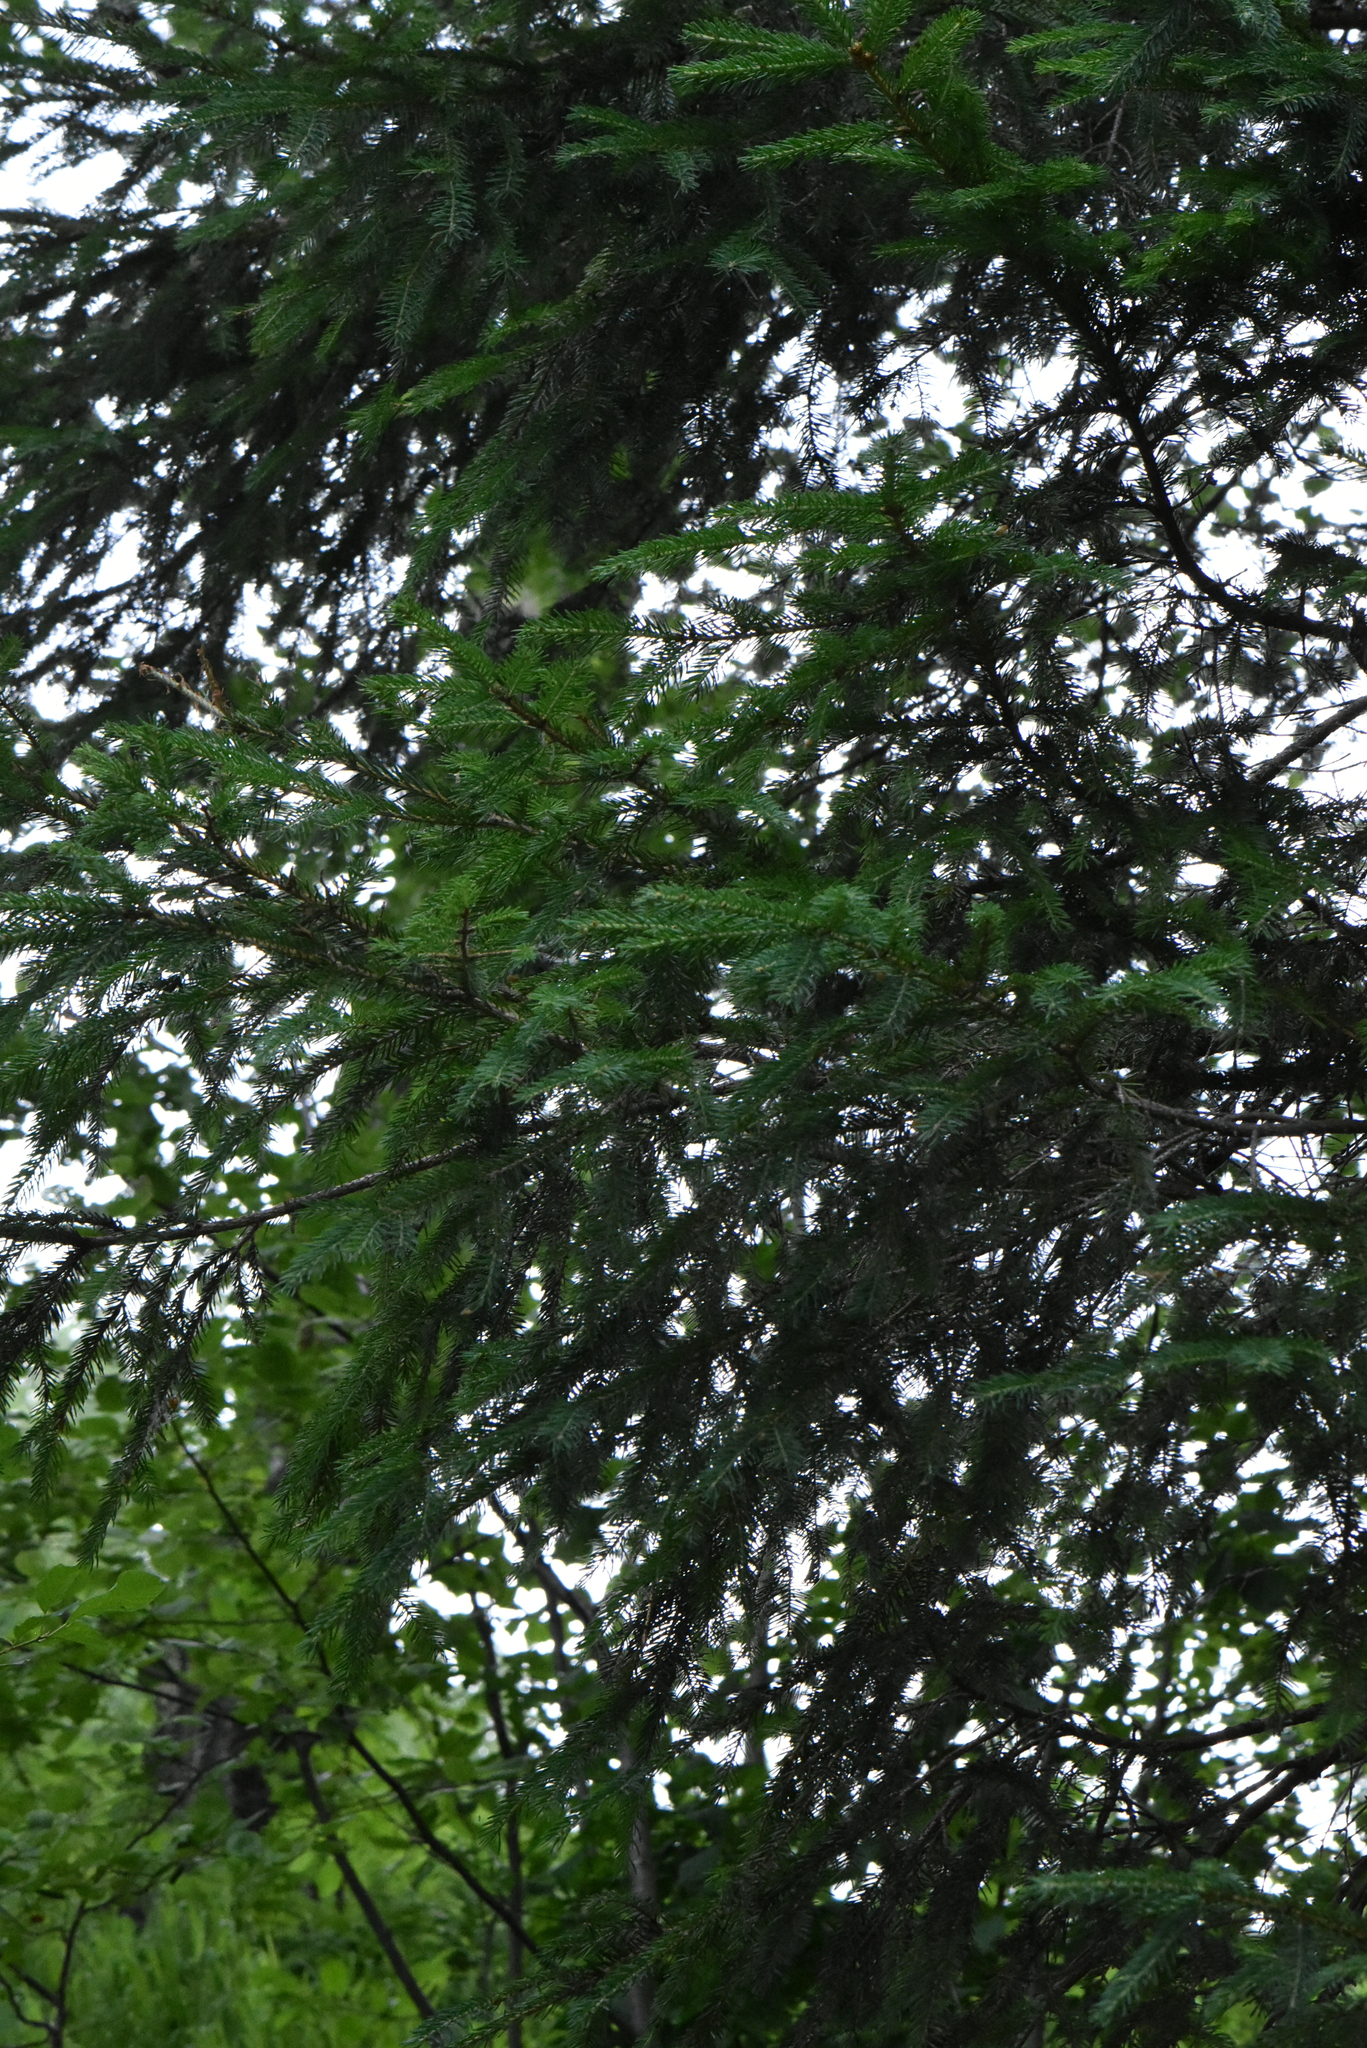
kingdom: Plantae
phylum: Tracheophyta
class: Pinopsida
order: Pinales
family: Pinaceae
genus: Picea
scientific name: Picea abies
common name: Norway spruce
